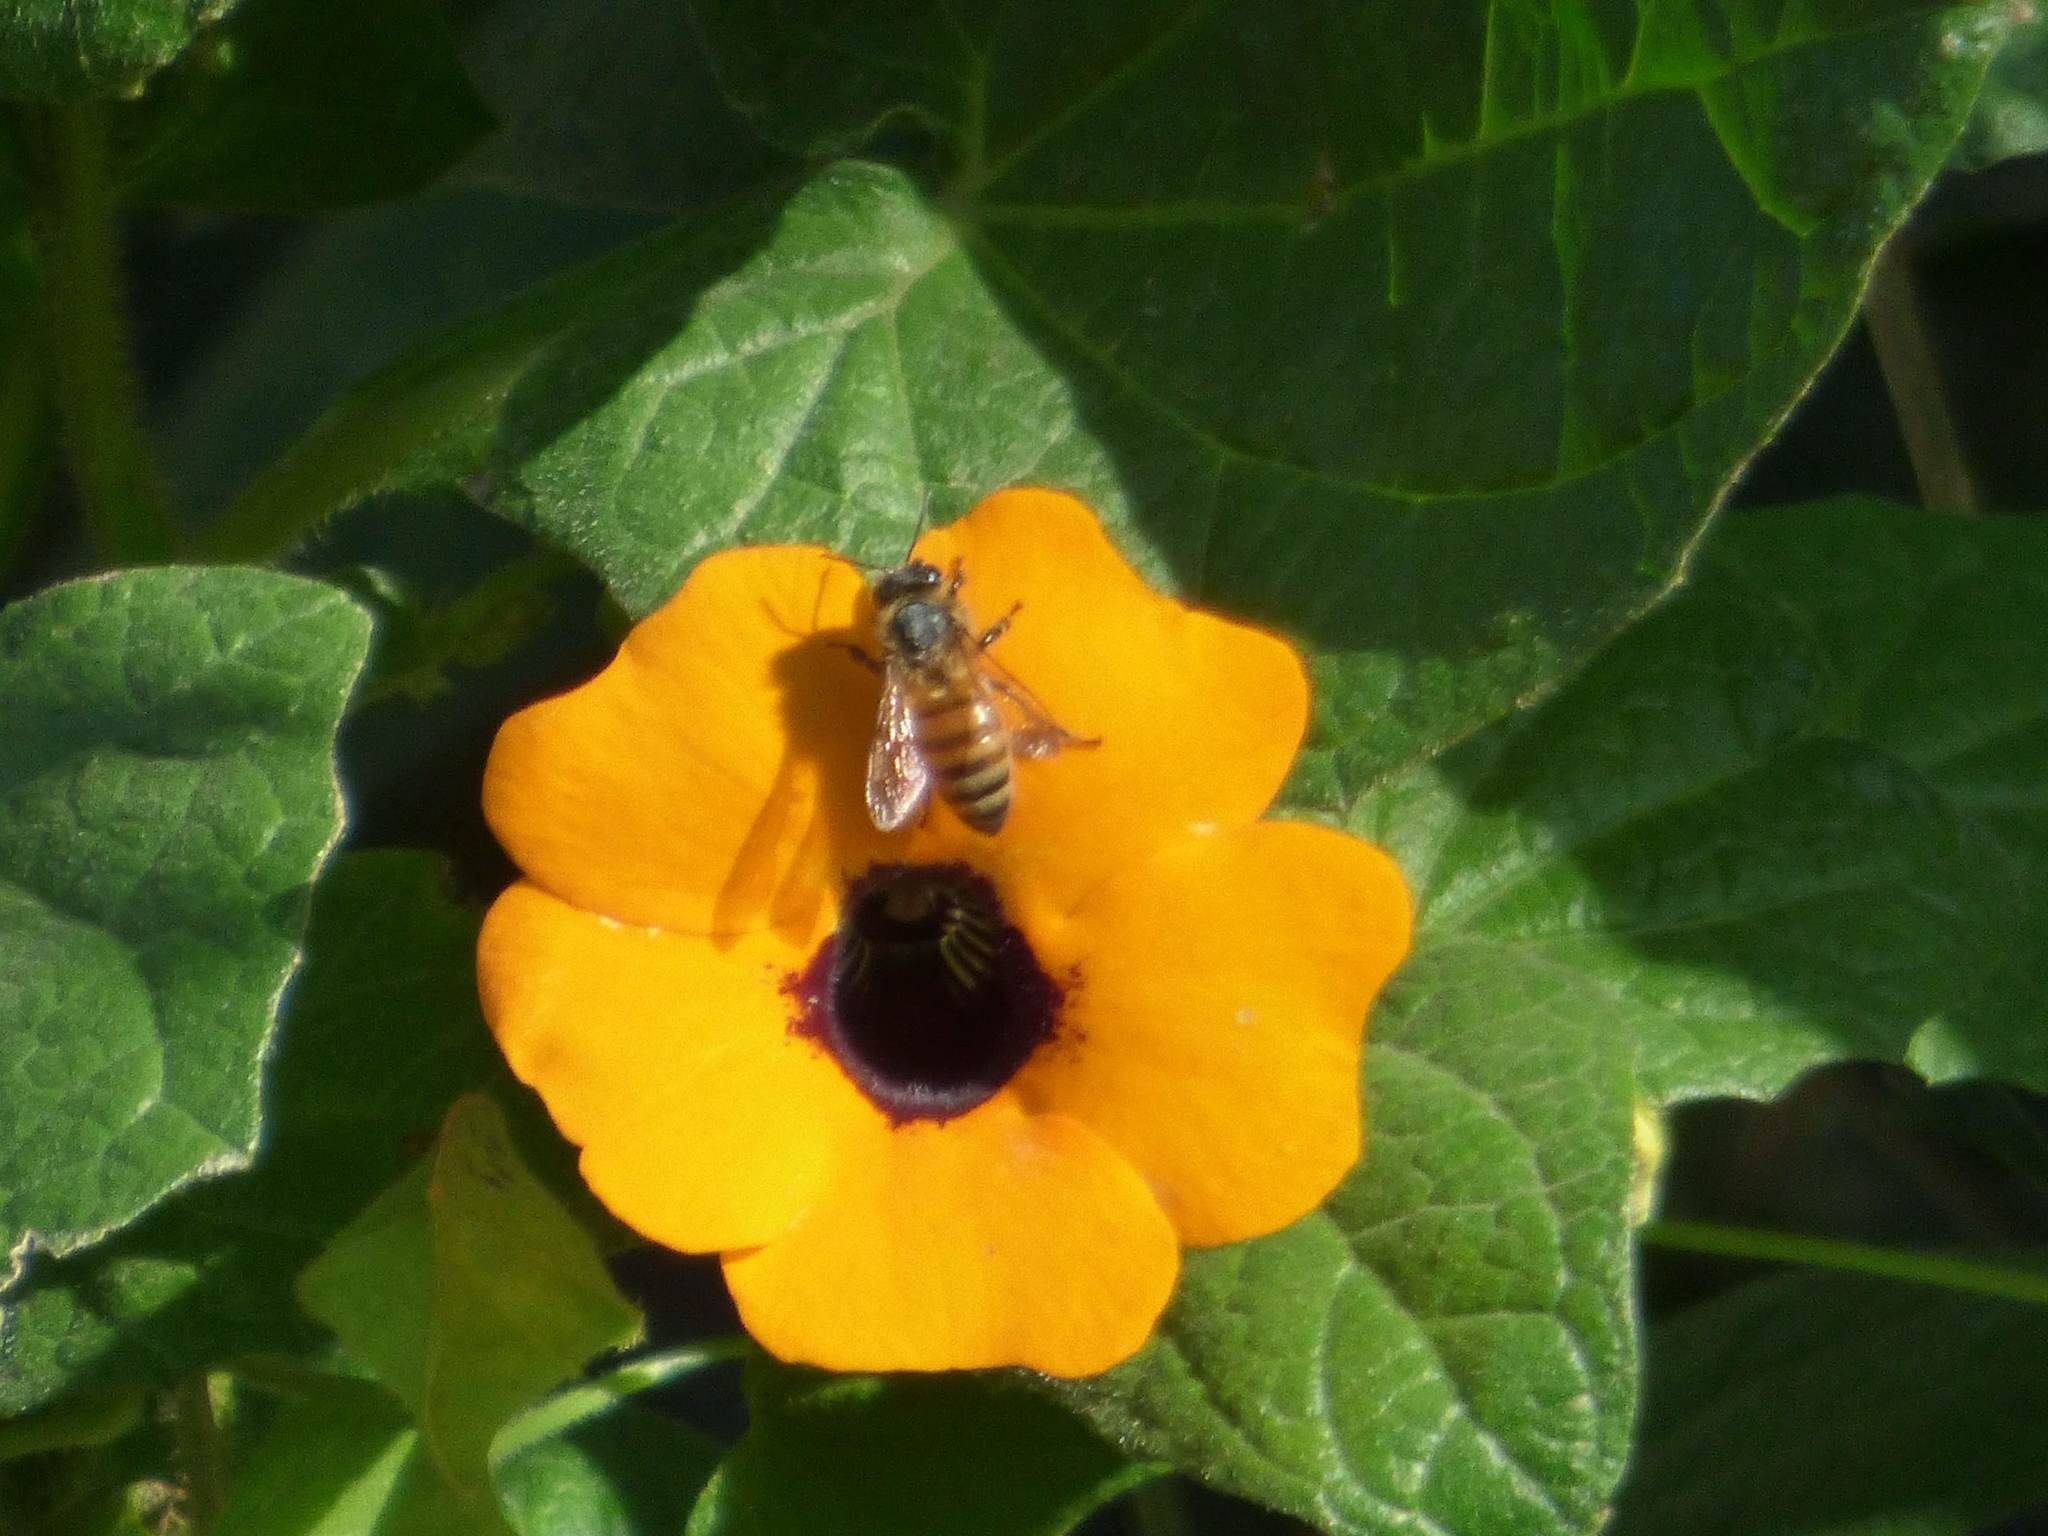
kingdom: Animalia
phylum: Arthropoda
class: Insecta
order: Hymenoptera
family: Apidae
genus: Apis
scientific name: Apis mellifera
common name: Honey bee
